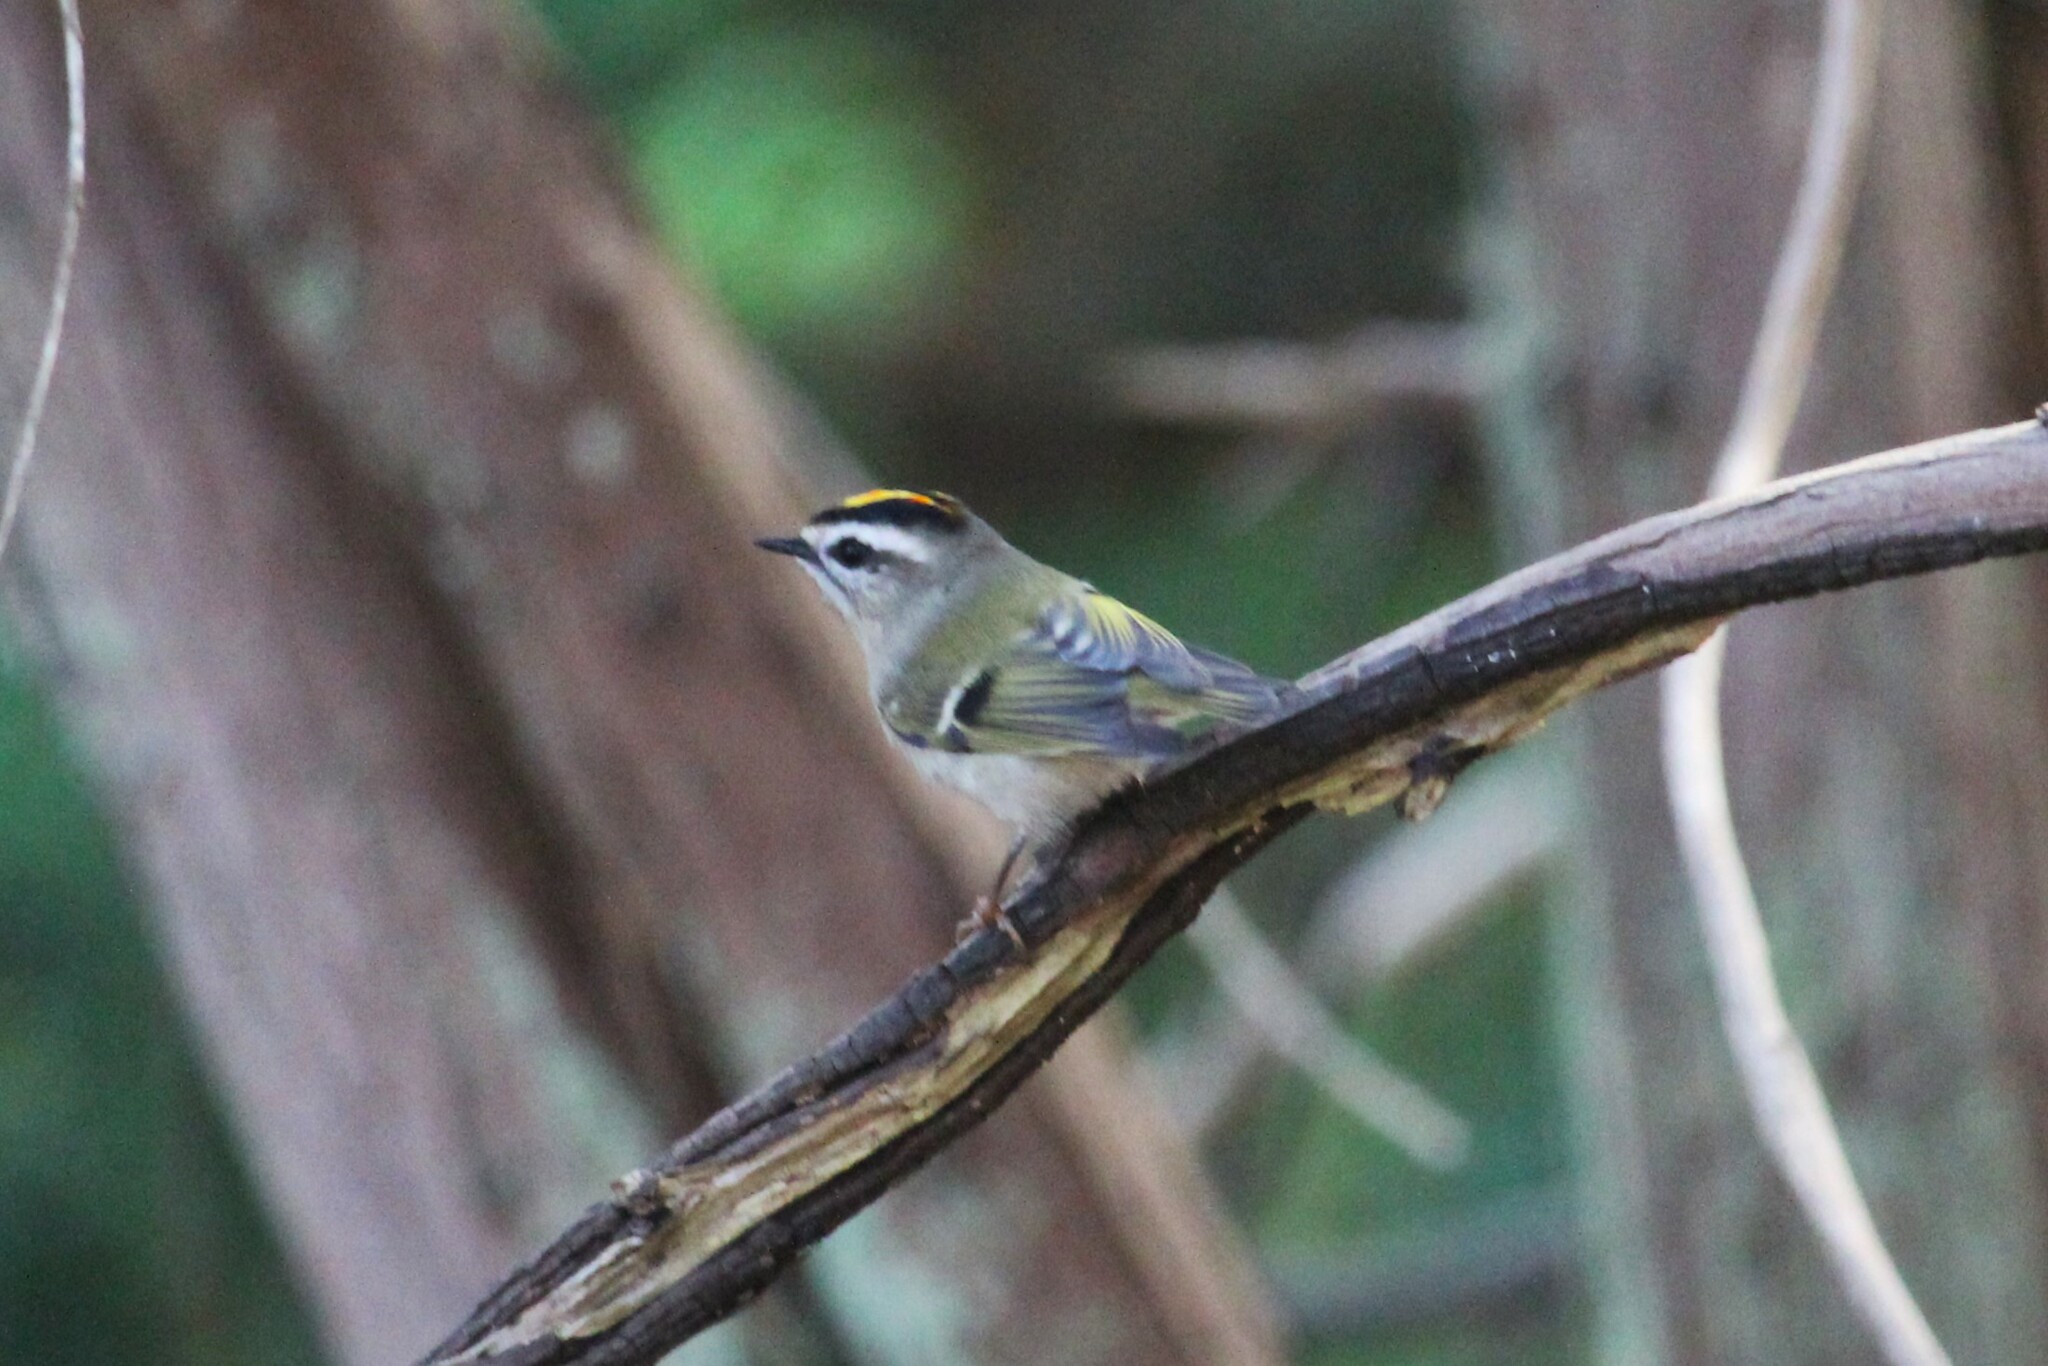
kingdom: Animalia
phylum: Chordata
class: Aves
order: Passeriformes
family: Regulidae
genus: Regulus
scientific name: Regulus satrapa
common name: Golden-crowned kinglet
